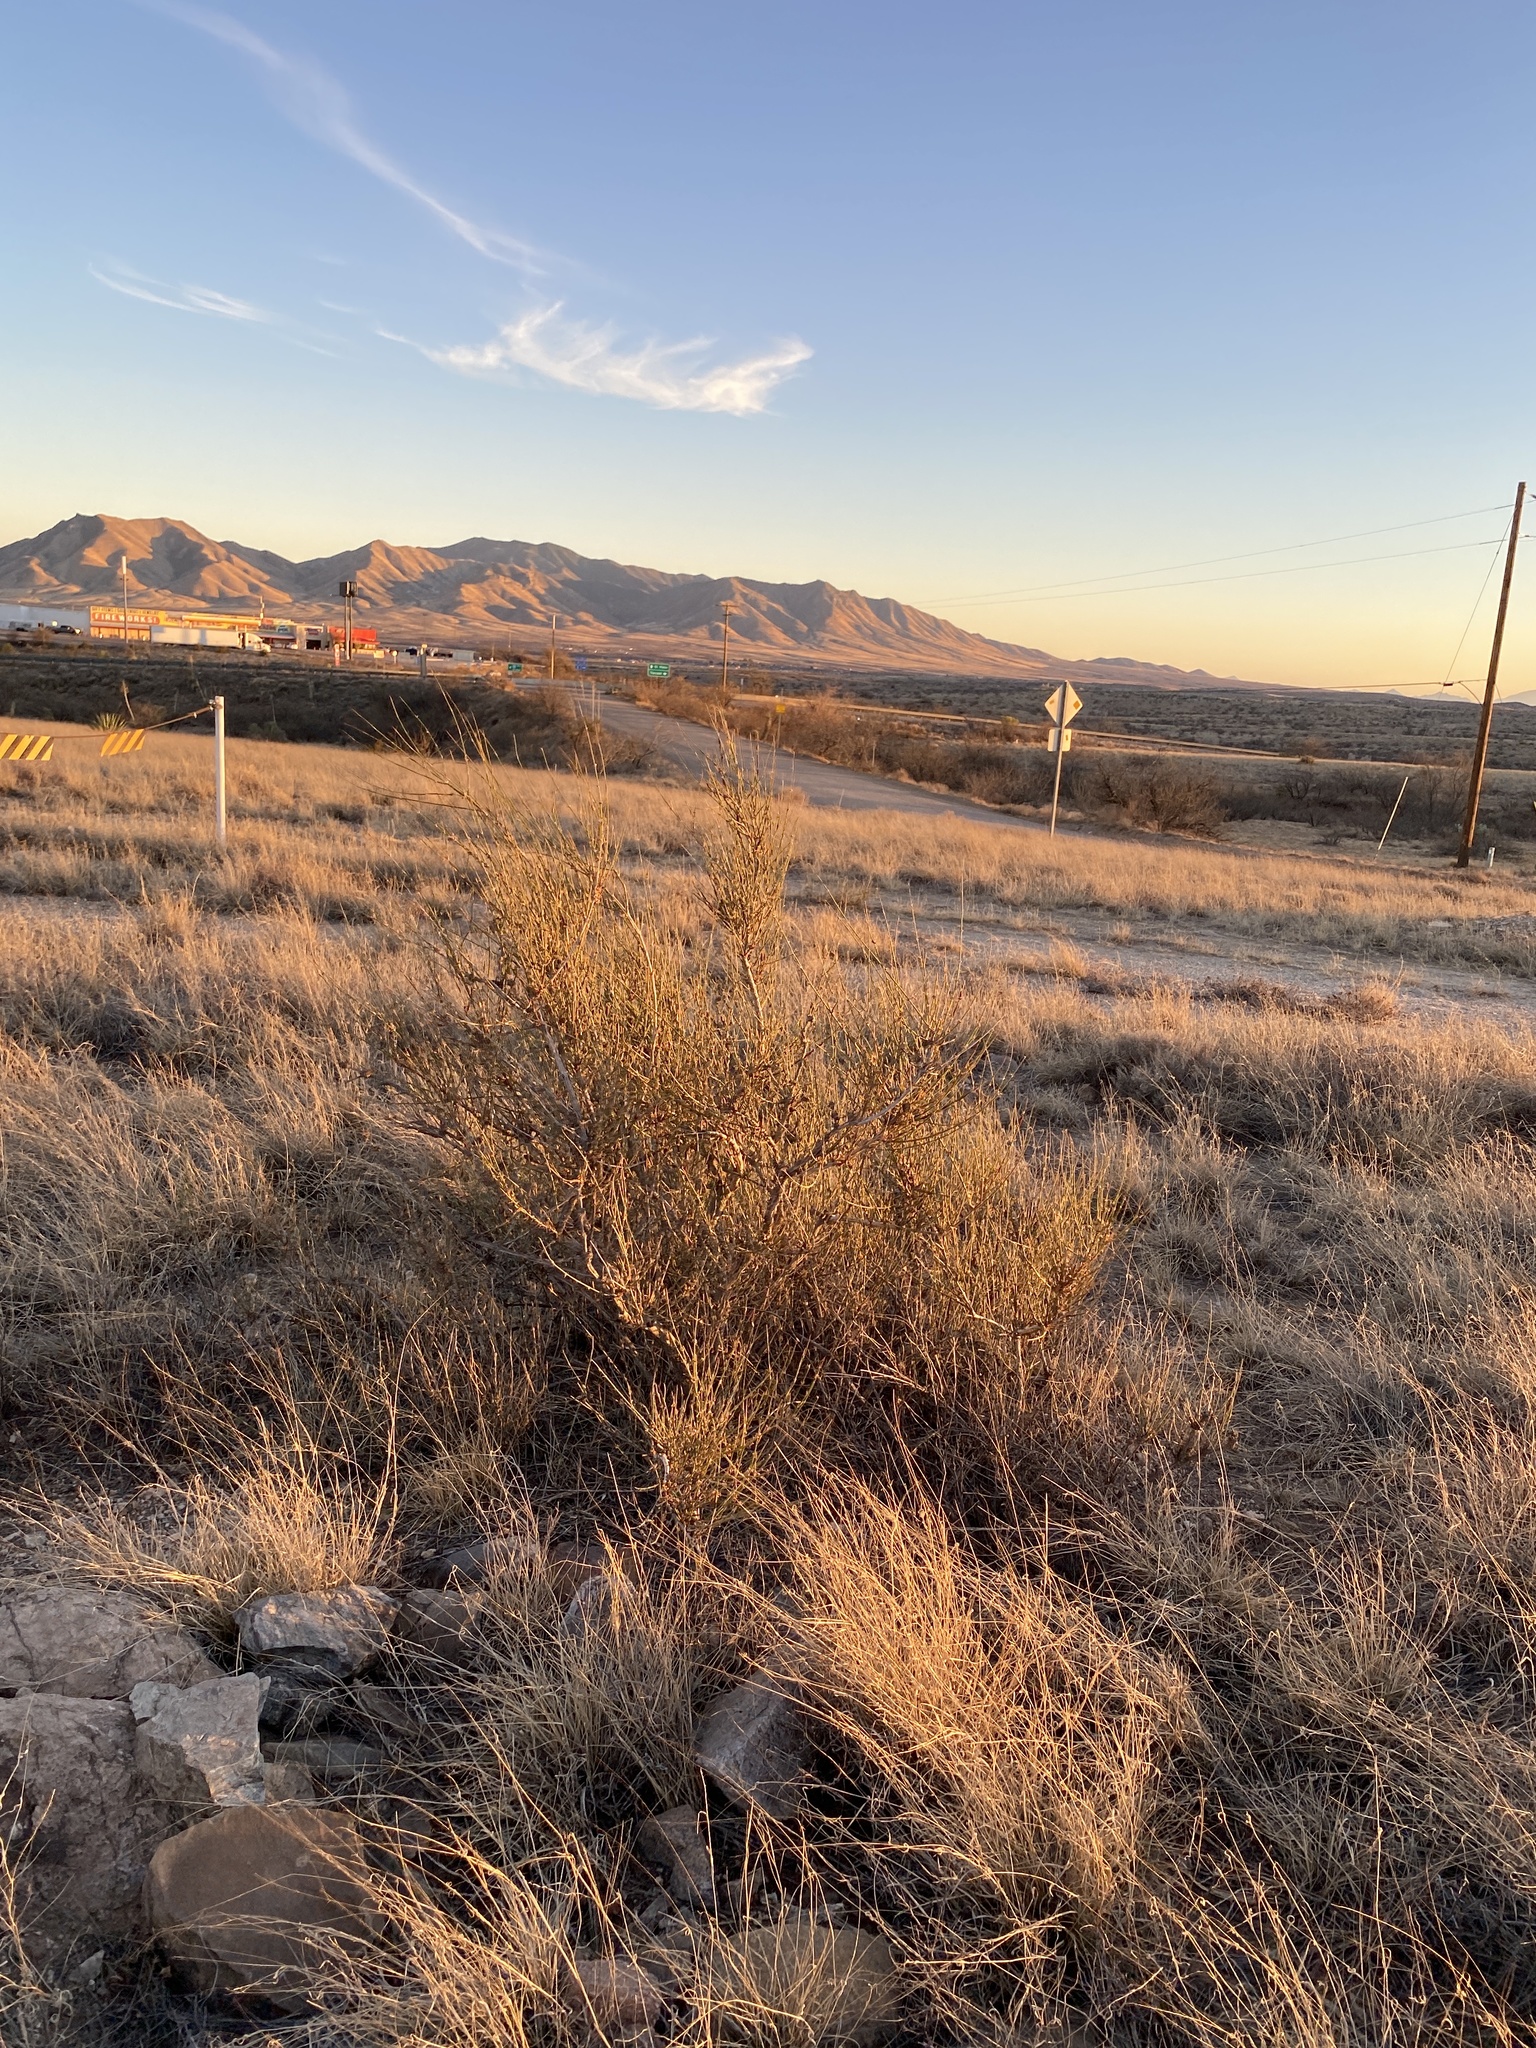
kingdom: Plantae
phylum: Tracheophyta
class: Gnetopsida
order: Ephedrales
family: Ephedraceae
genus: Ephedra
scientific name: Ephedra trifurca
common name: Mexican-tea
